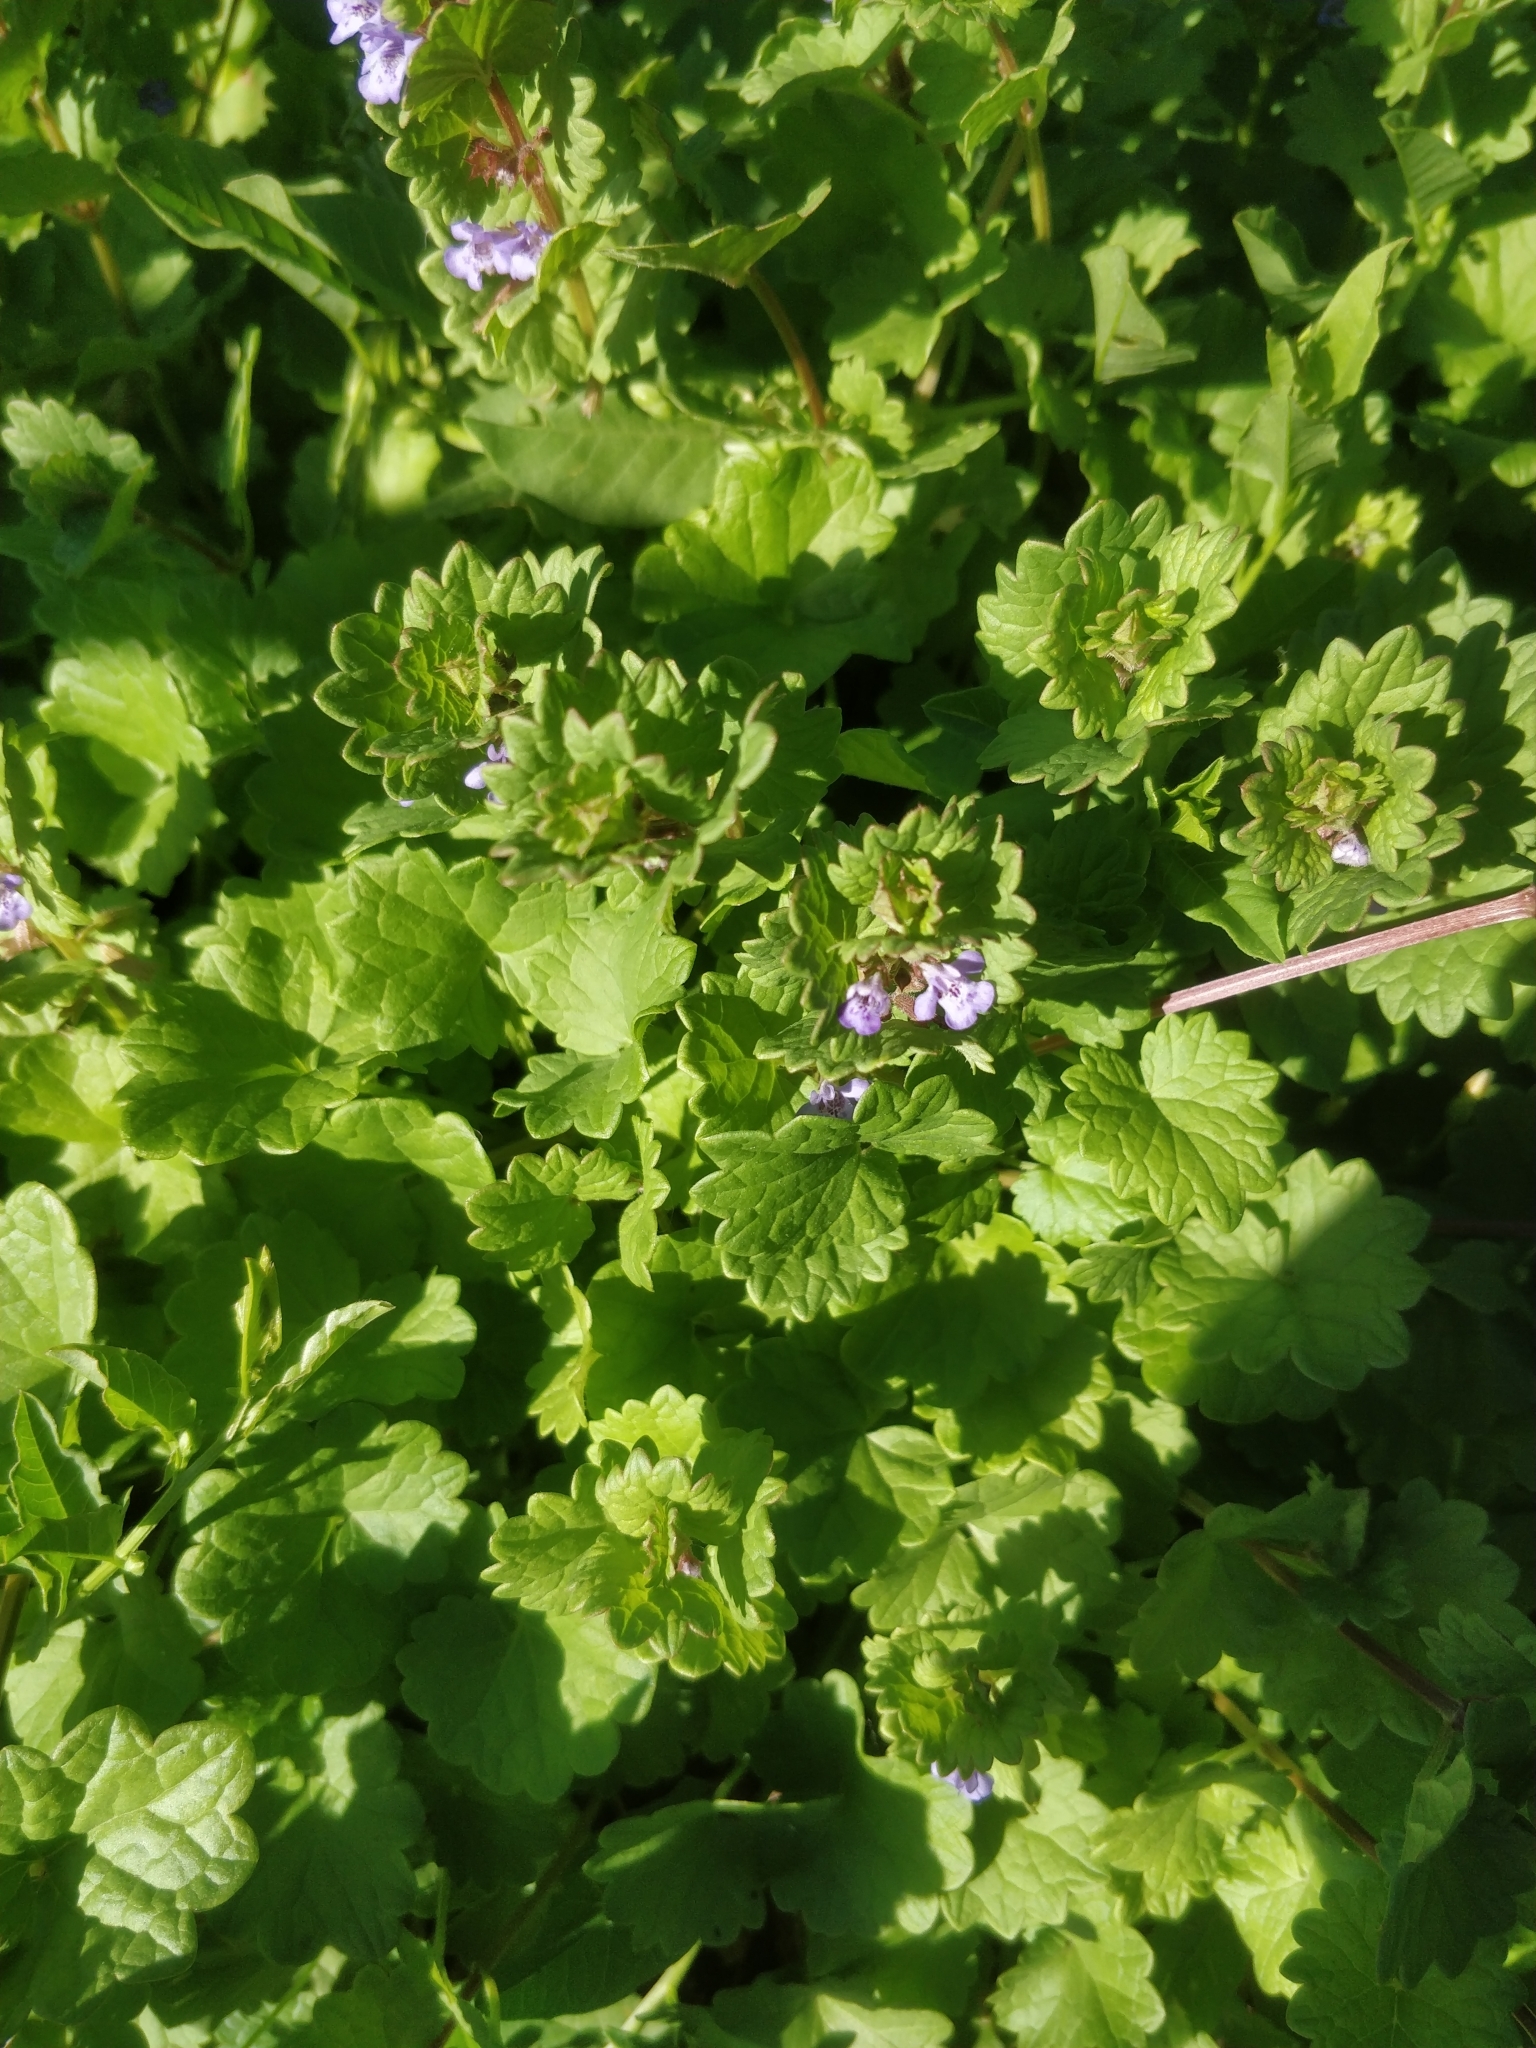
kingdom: Plantae
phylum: Tracheophyta
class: Magnoliopsida
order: Lamiales
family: Lamiaceae
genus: Glechoma
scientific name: Glechoma hederacea
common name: Ground ivy
